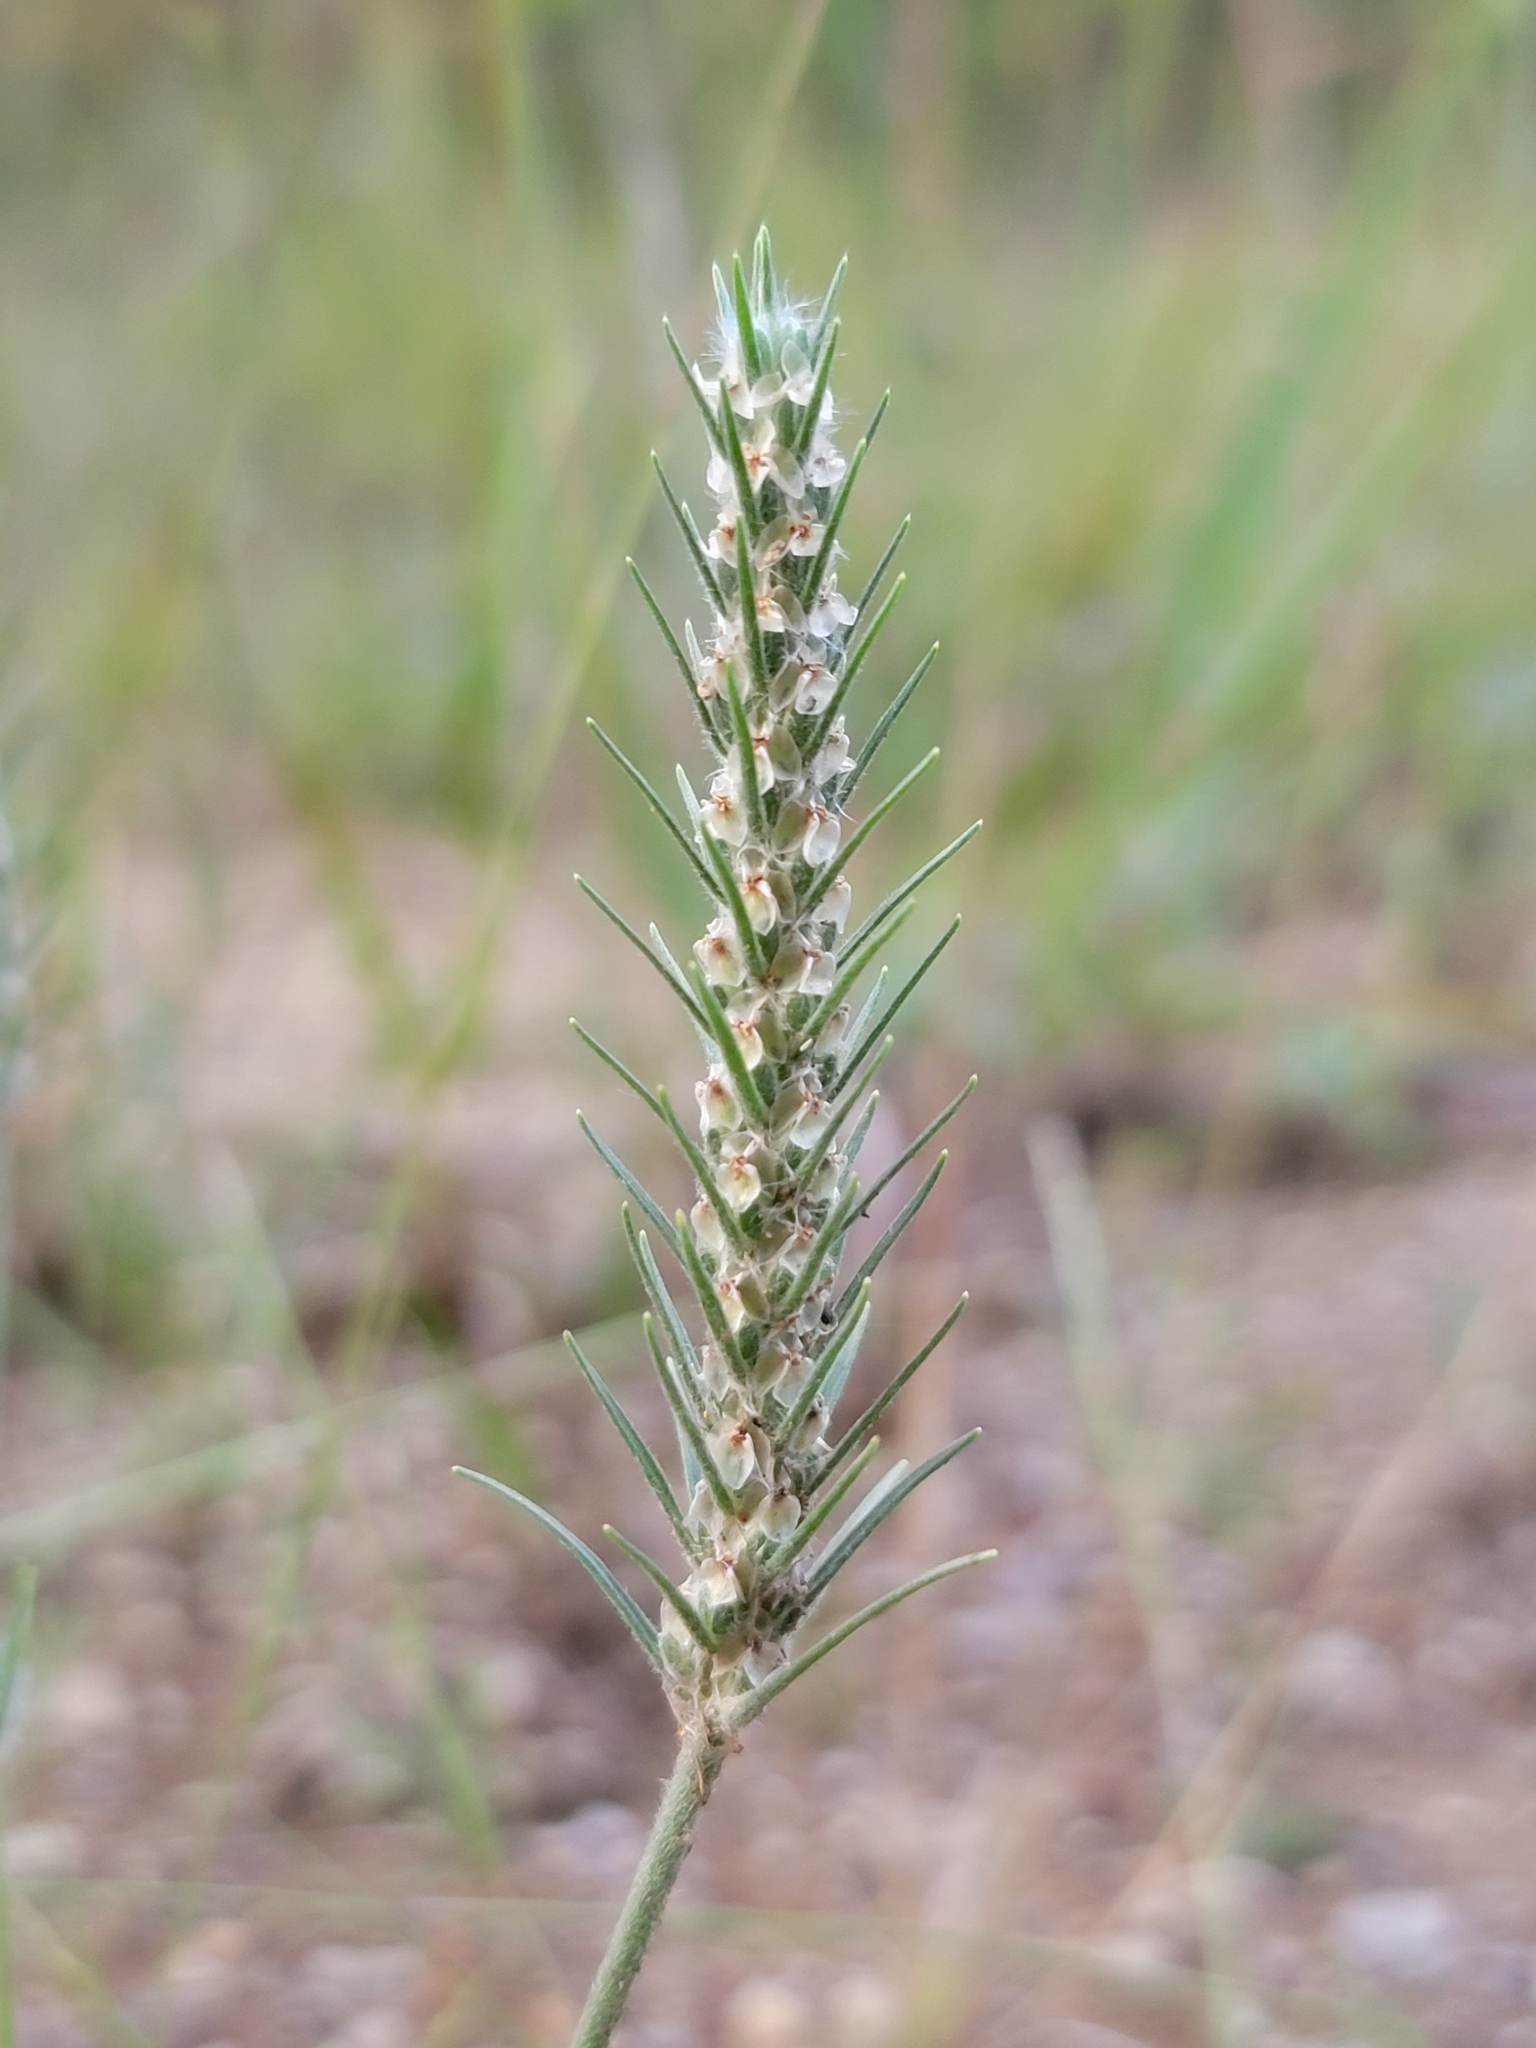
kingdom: Plantae
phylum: Tracheophyta
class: Magnoliopsida
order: Lamiales
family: Plantaginaceae
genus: Plantago
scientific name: Plantago aristata
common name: Bracted plantain
